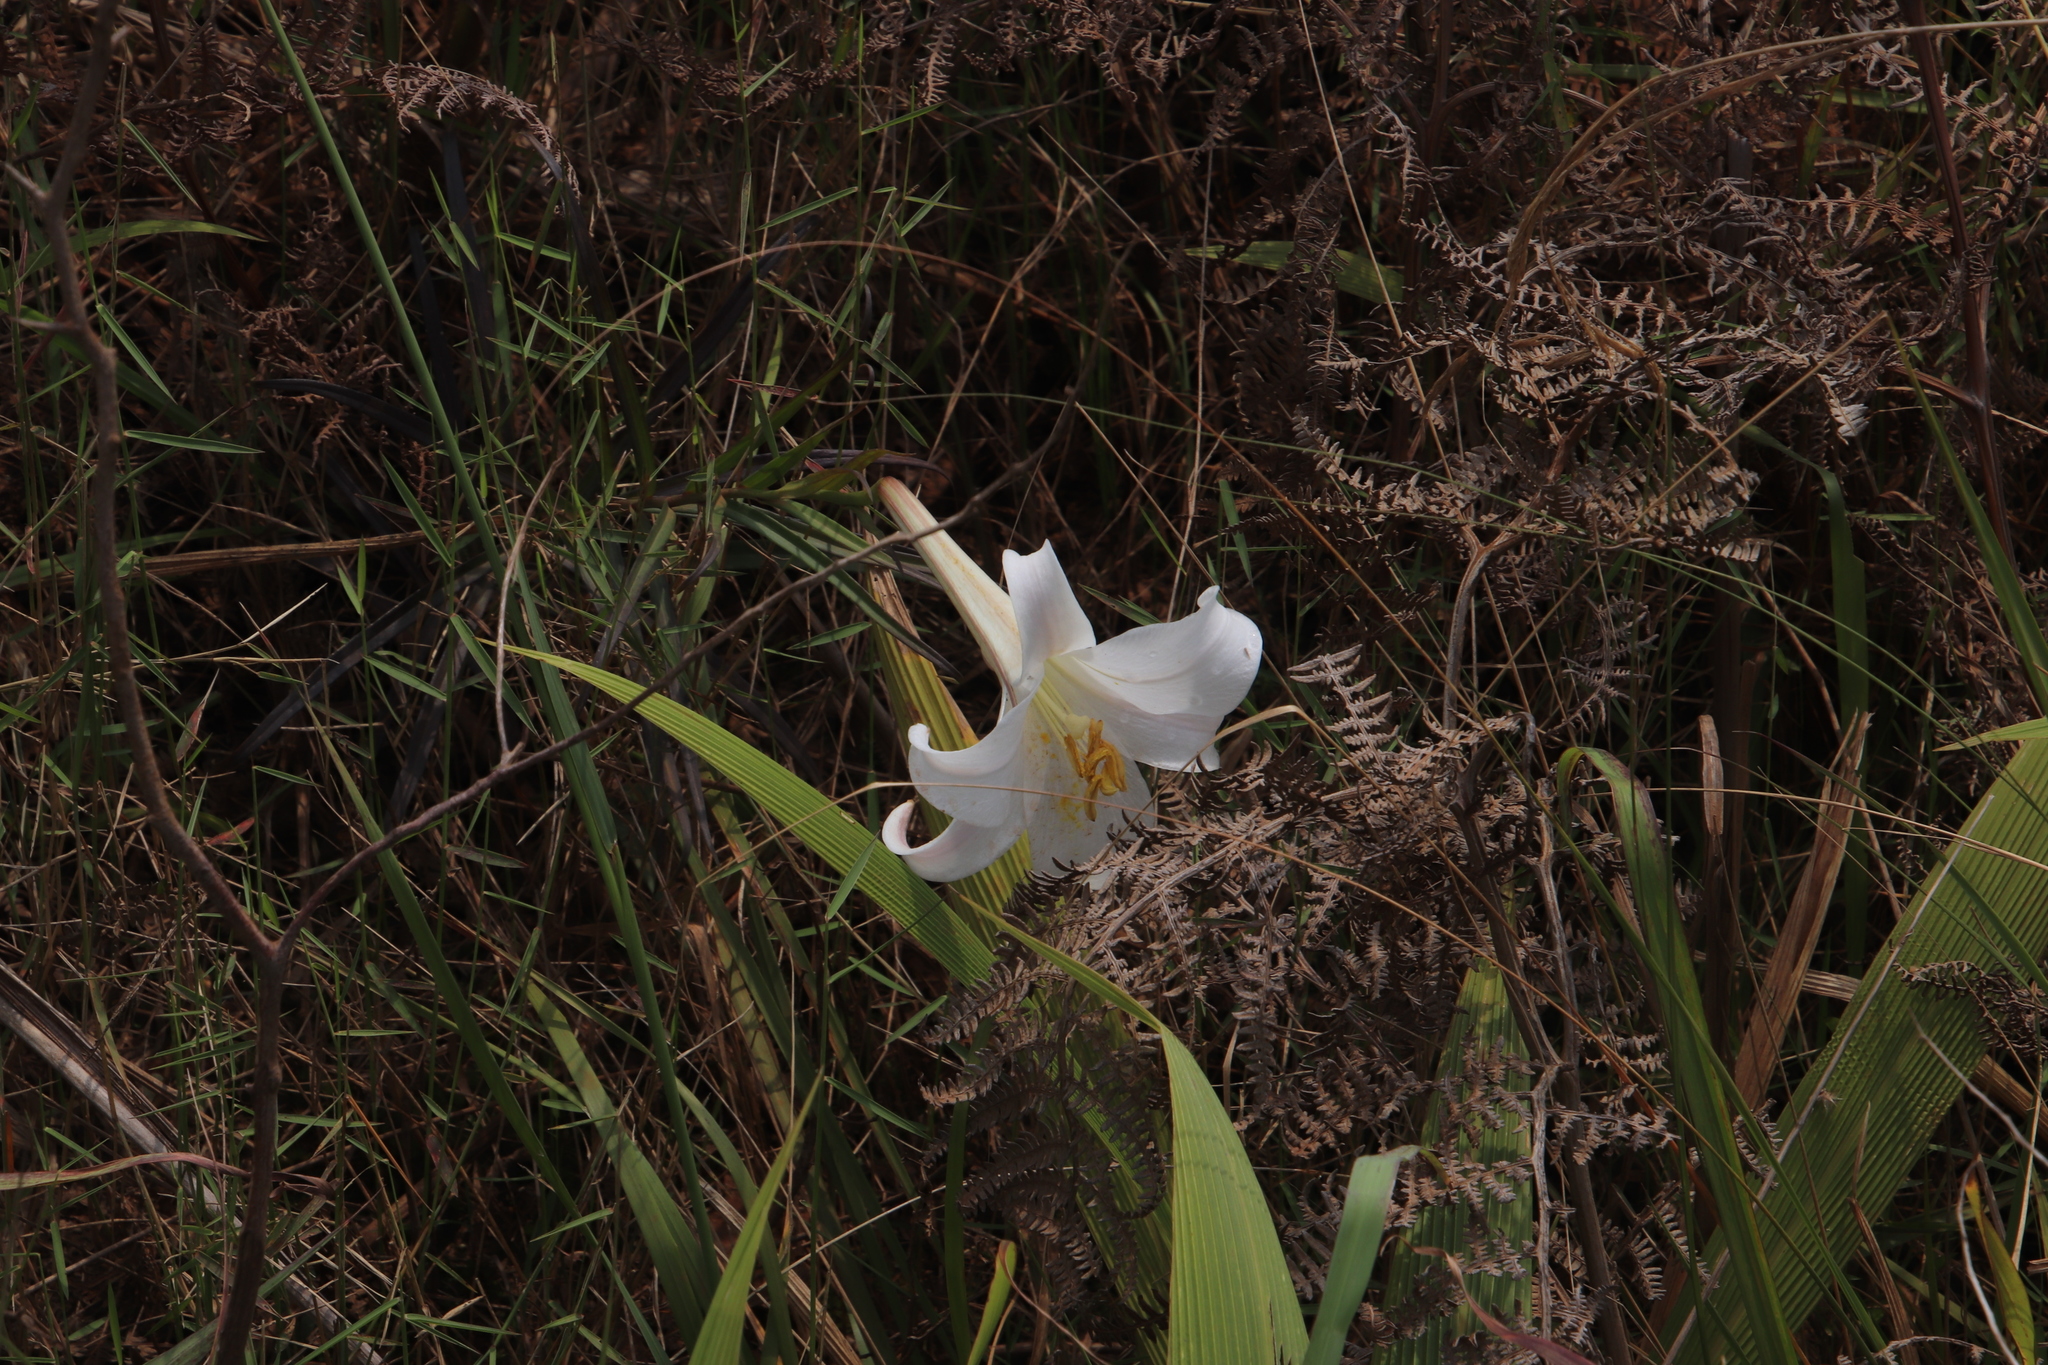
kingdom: Plantae
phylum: Tracheophyta
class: Liliopsida
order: Liliales
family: Liliaceae
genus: Lilium
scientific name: Lilium formosanum
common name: Formosa lily
